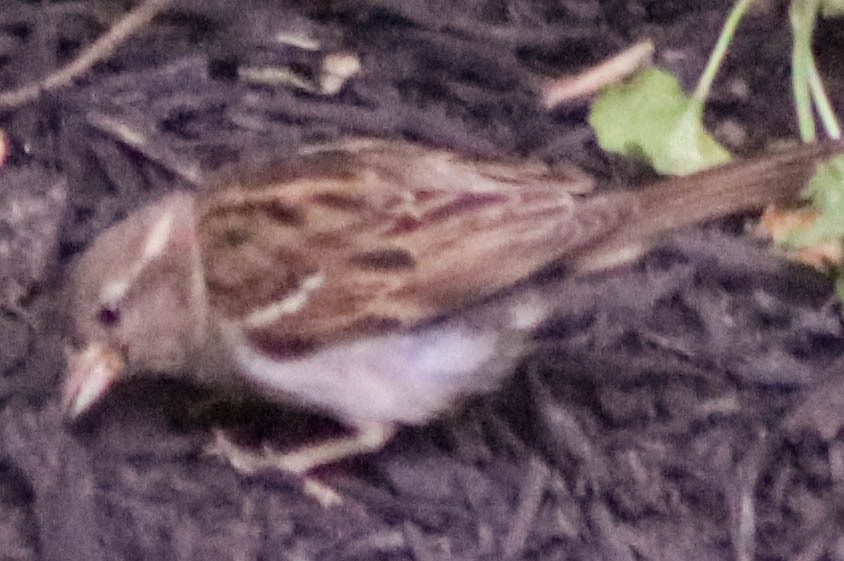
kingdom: Animalia
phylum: Chordata
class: Aves
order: Passeriformes
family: Passeridae
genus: Passer
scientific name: Passer domesticus
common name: House sparrow
